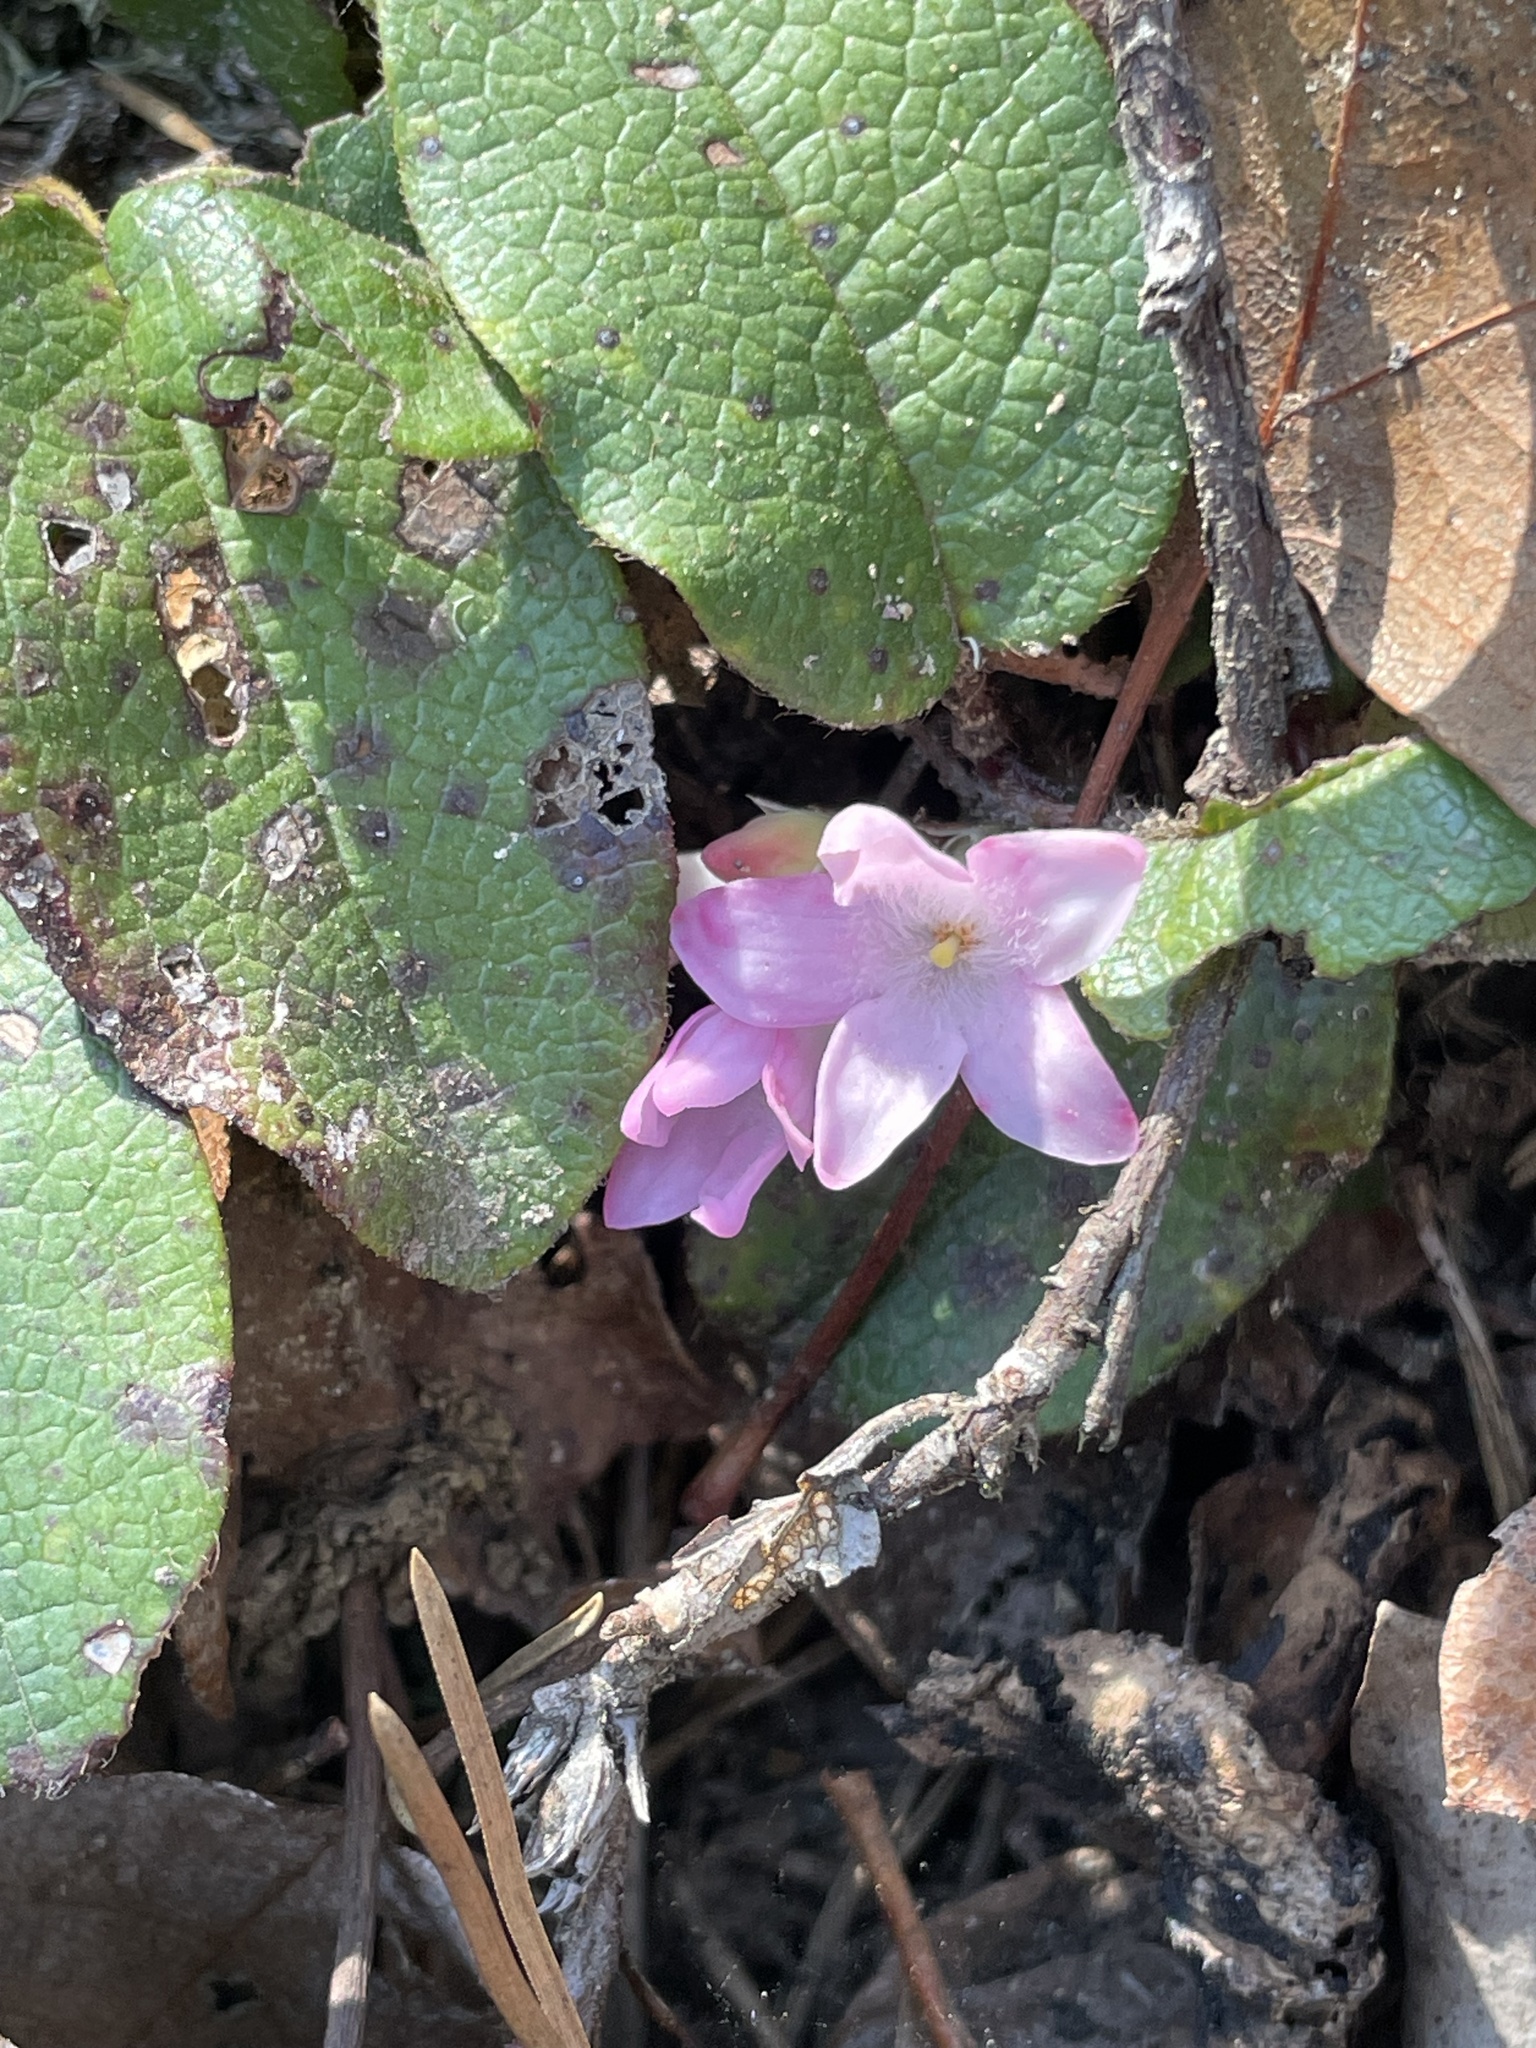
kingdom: Plantae
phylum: Tracheophyta
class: Magnoliopsida
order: Ericales
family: Ericaceae
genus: Epigaea
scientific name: Epigaea repens
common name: Gravelroot
